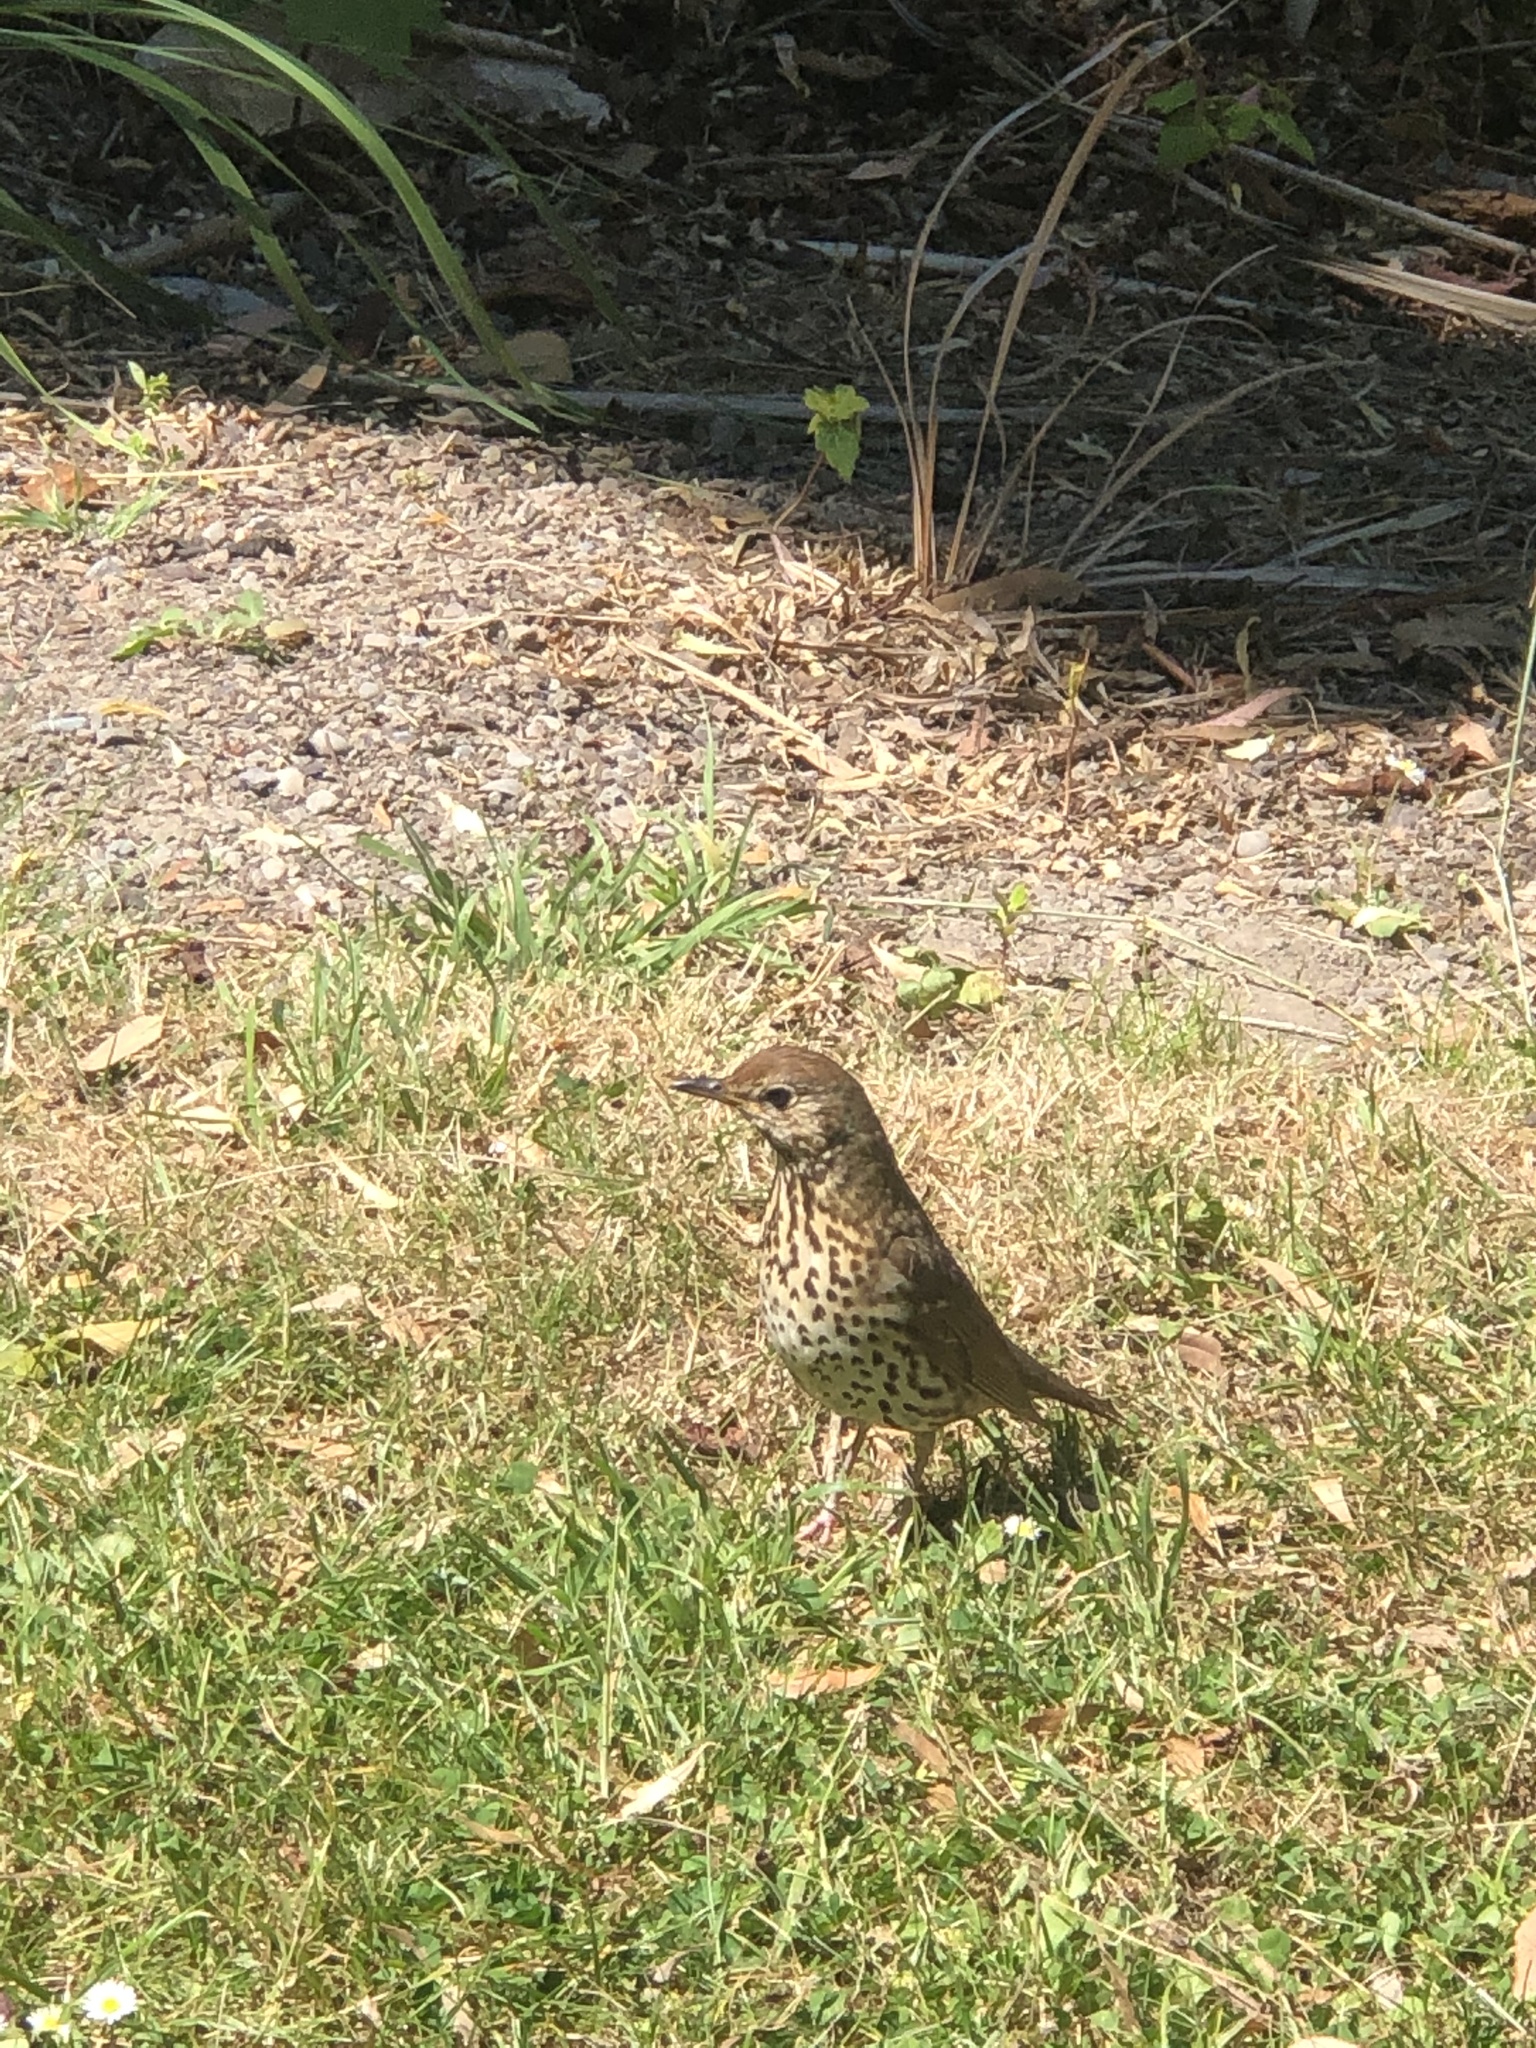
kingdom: Animalia
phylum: Chordata
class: Aves
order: Passeriformes
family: Turdidae
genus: Turdus
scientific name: Turdus philomelos
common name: Song thrush
